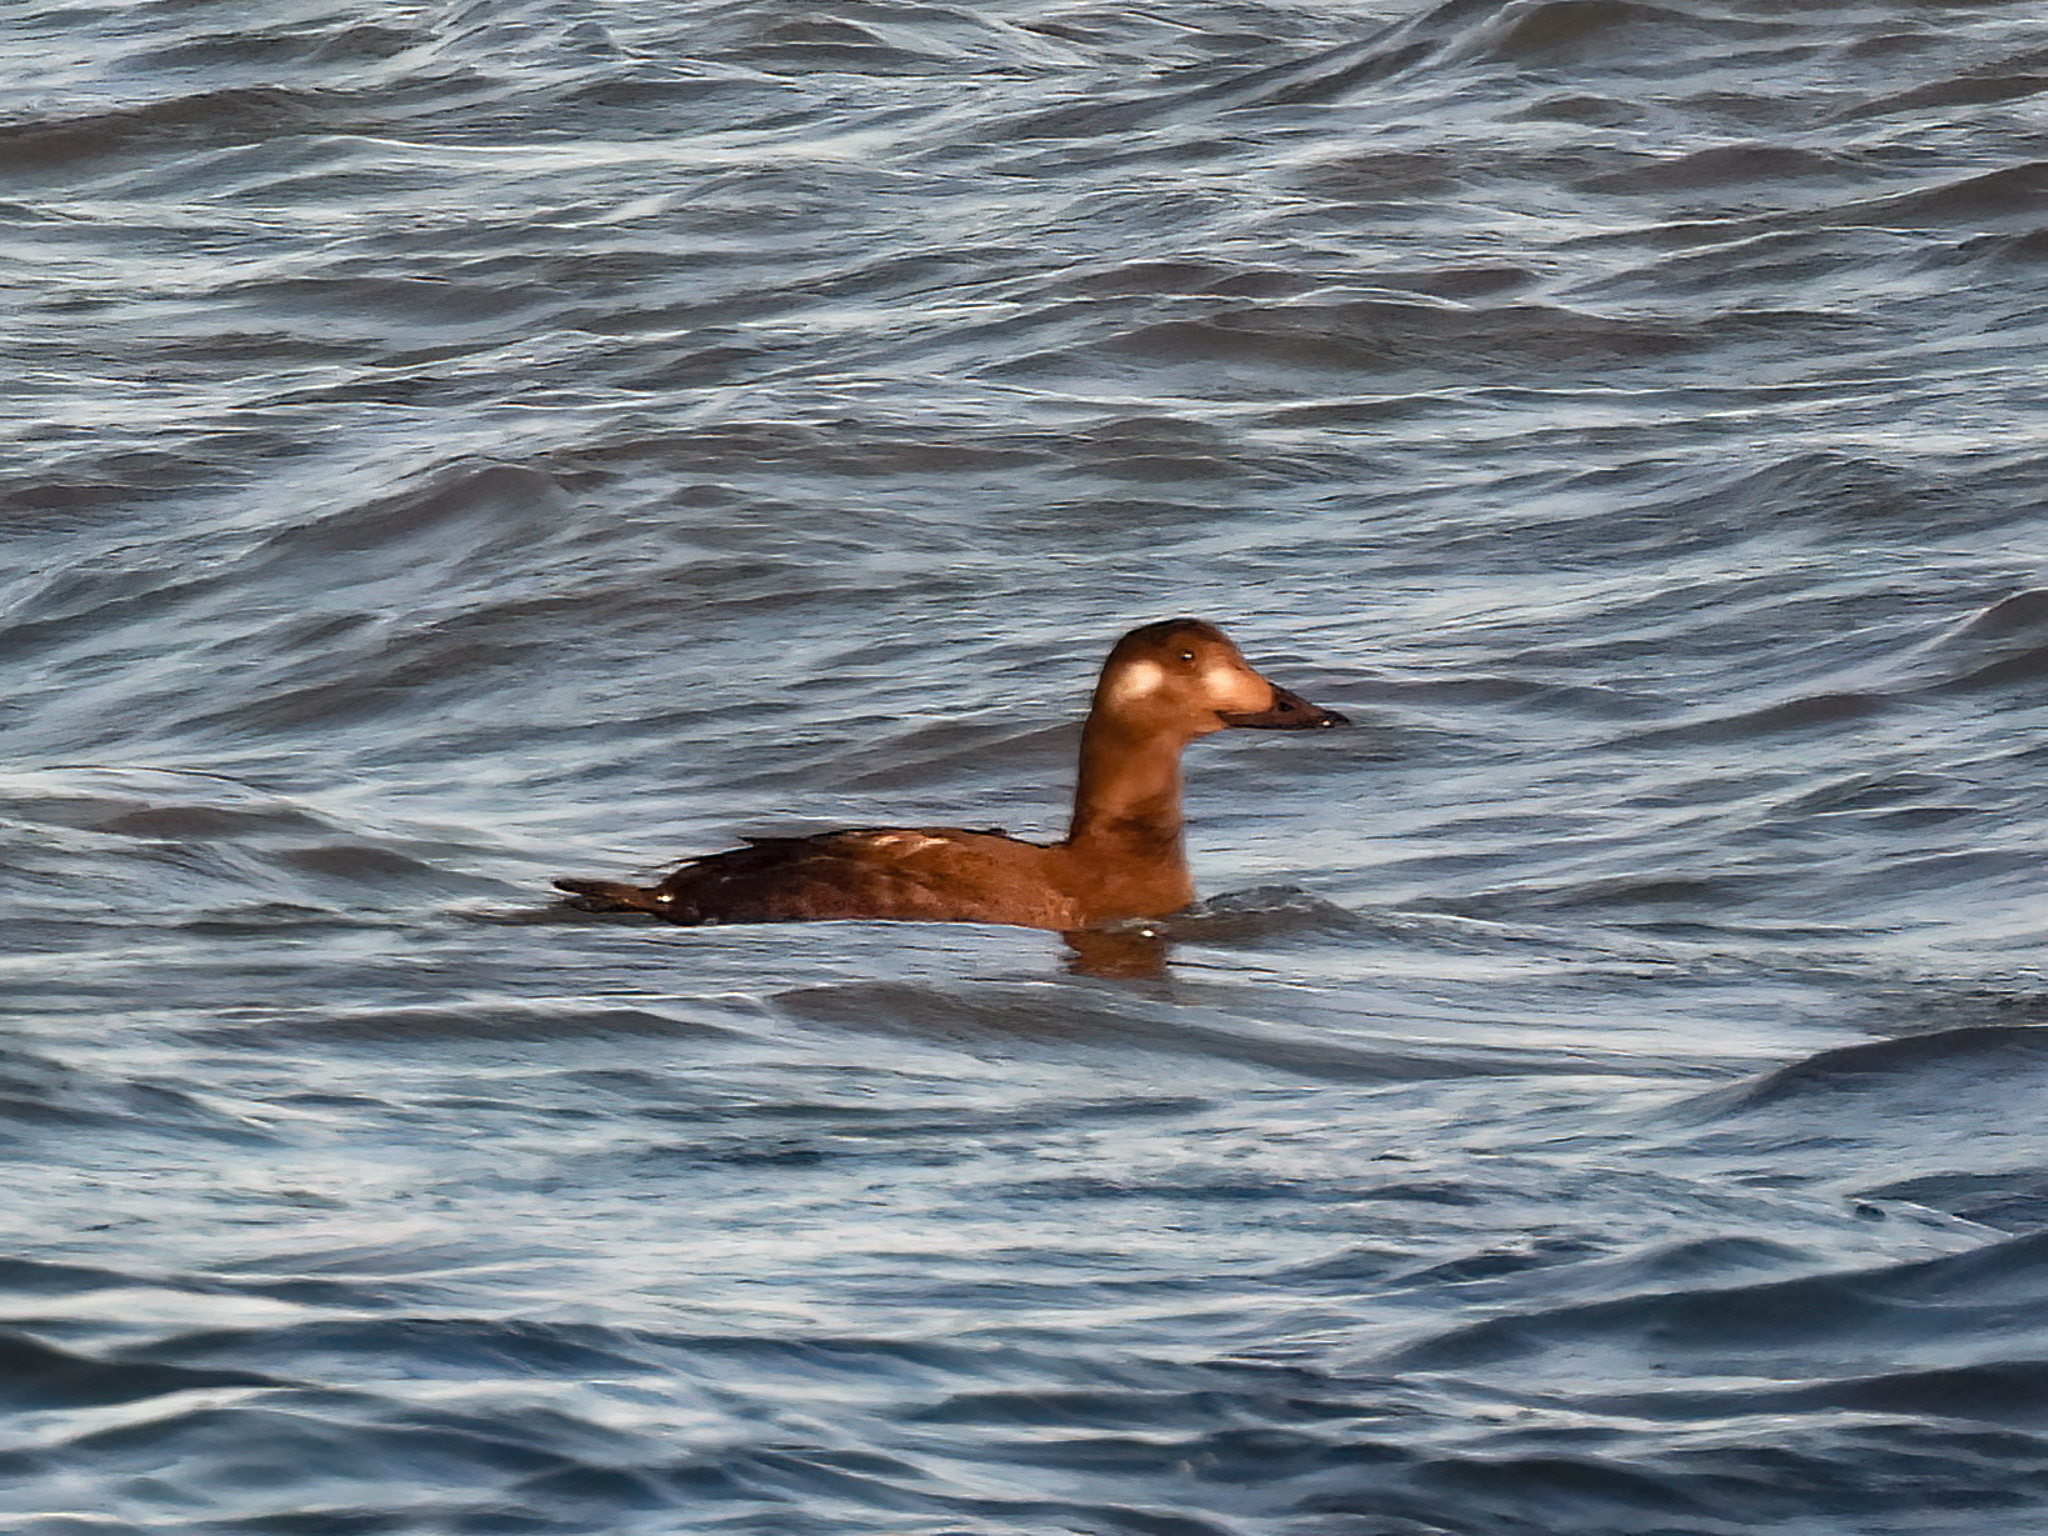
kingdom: Animalia
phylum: Chordata
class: Aves
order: Anseriformes
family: Anatidae
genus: Melanitta
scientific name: Melanitta deglandi
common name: White-winged scoter
